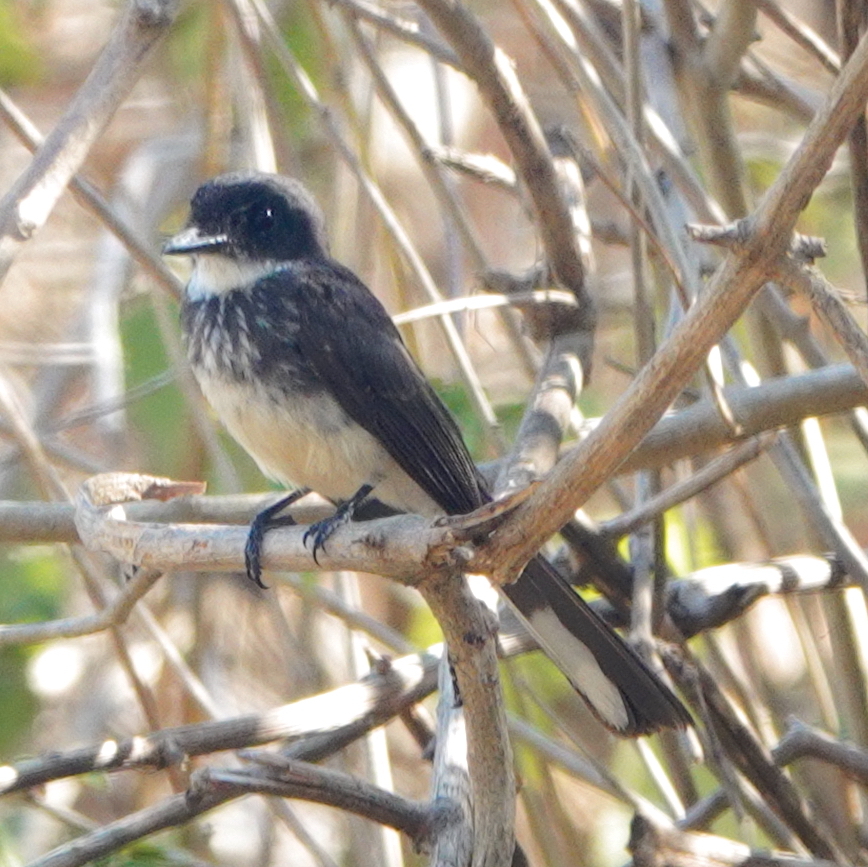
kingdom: Animalia
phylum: Chordata
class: Aves
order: Passeriformes
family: Rhipiduridae
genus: Rhipidura
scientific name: Rhipidura rufiventris
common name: Northern fantail
